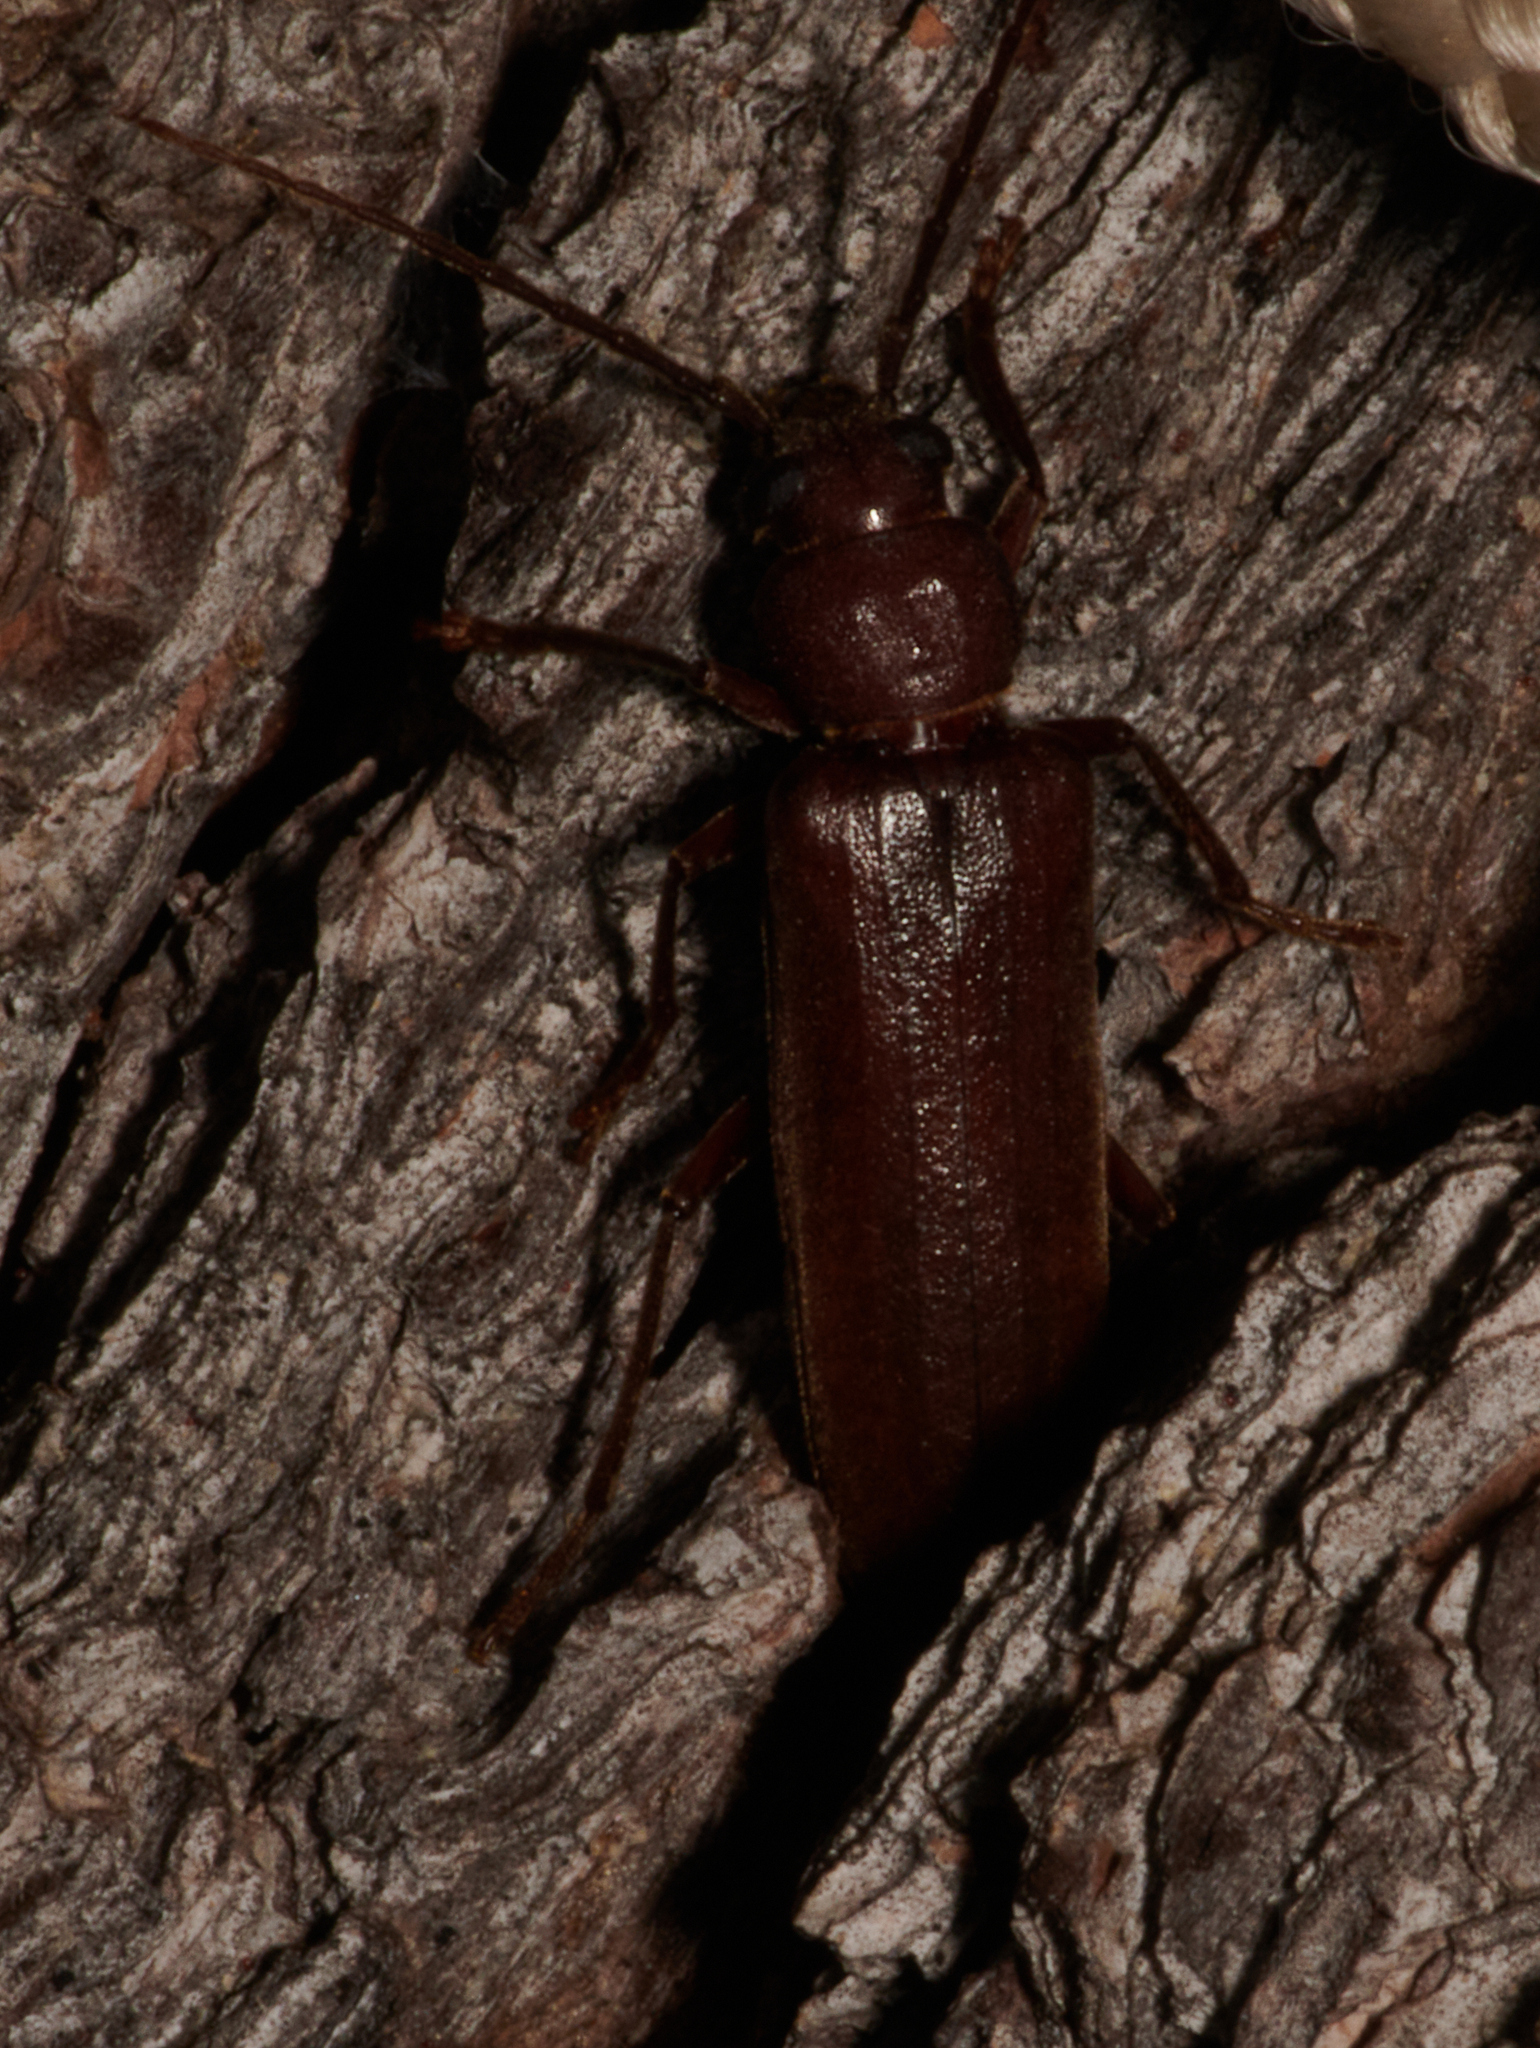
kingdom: Animalia
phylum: Arthropoda
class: Insecta
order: Coleoptera
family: Cerambycidae
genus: Arhopalus
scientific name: Arhopalus rusticus
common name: Rust pine borer
